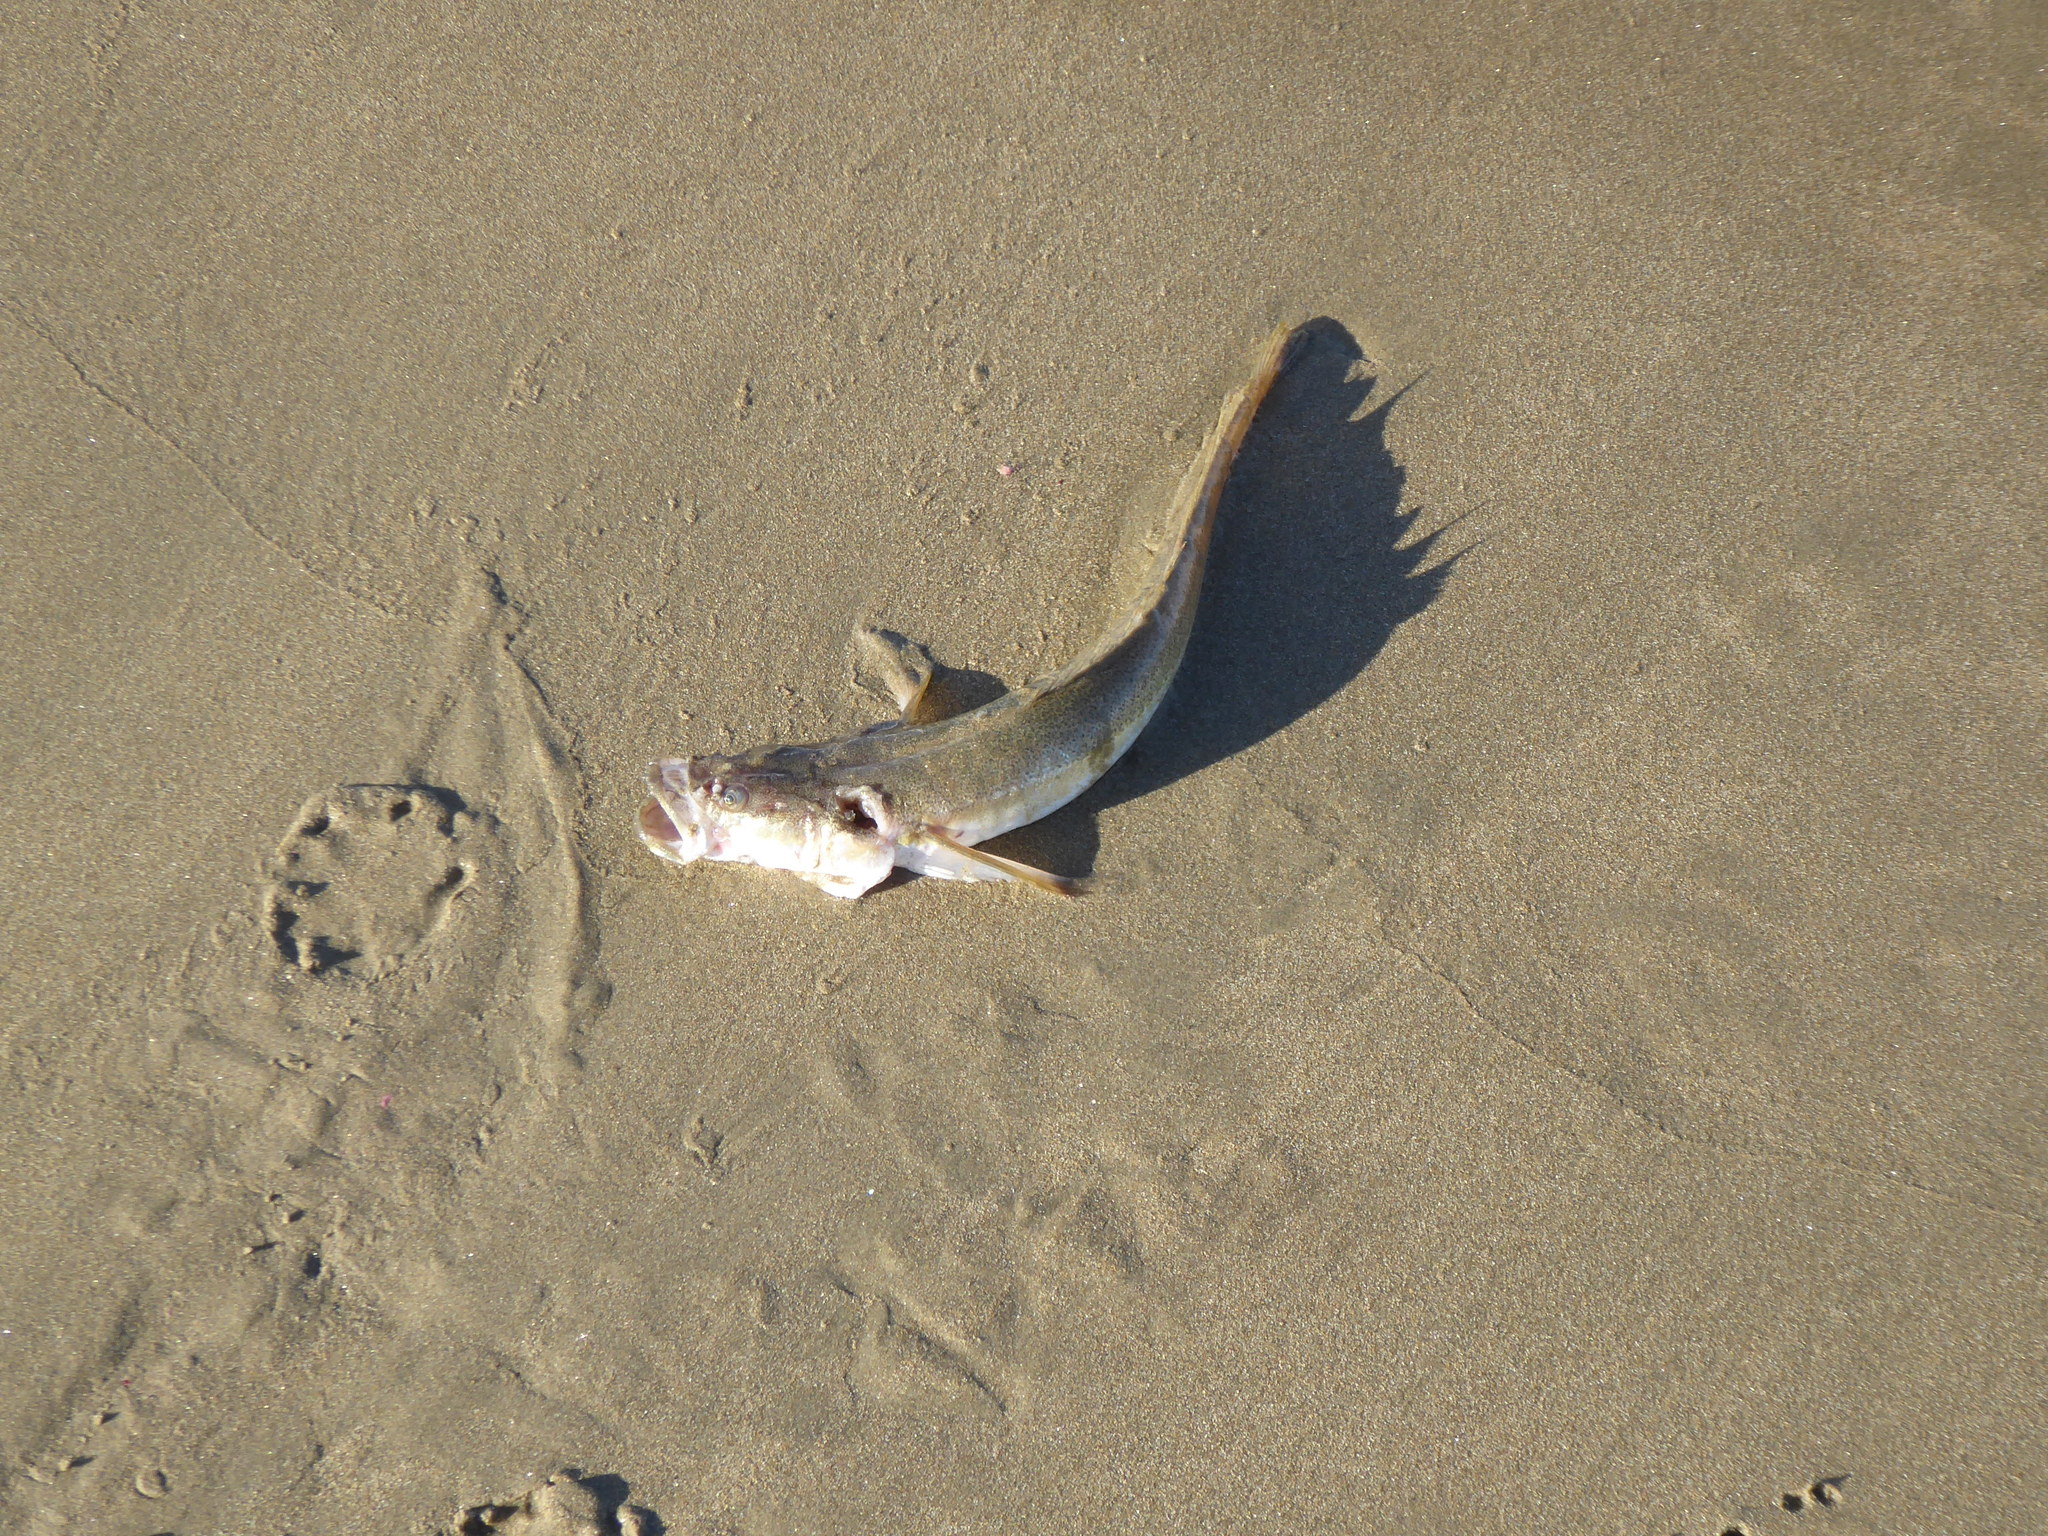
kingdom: Animalia
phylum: Chordata
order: Perciformes
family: Leptoscopidae
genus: Crapatalus
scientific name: Crapatalus angusticeps
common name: Slender stargazer
